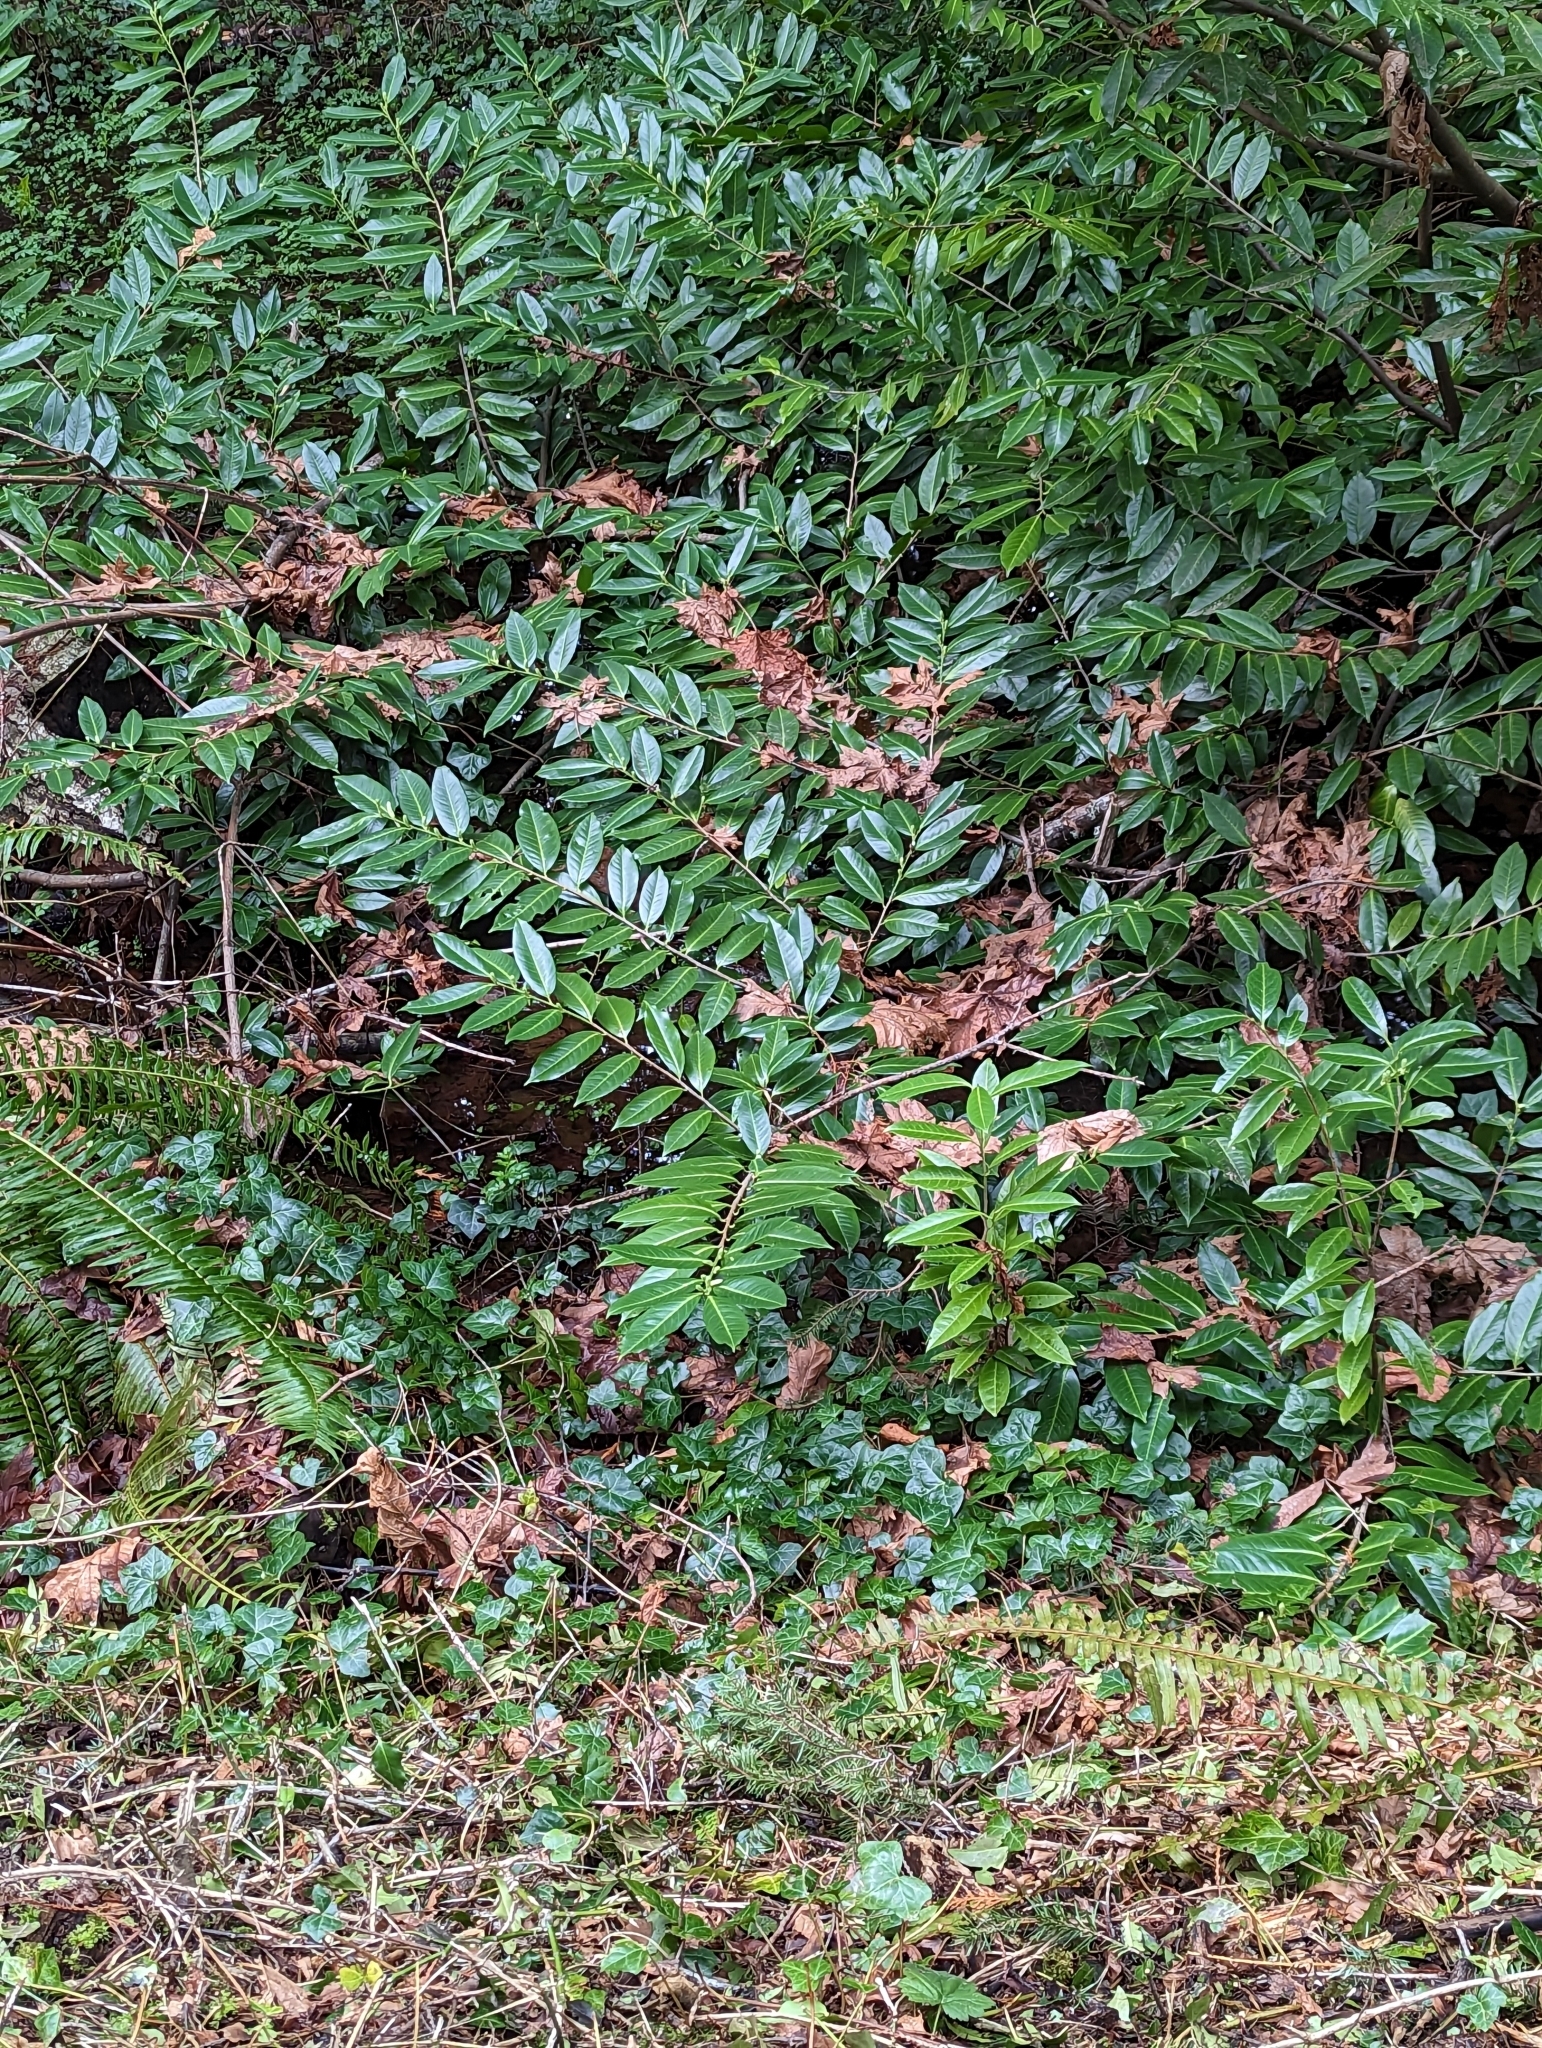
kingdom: Plantae
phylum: Tracheophyta
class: Magnoliopsida
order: Rosales
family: Rosaceae
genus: Prunus
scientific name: Prunus laurocerasus
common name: Cherry laurel
